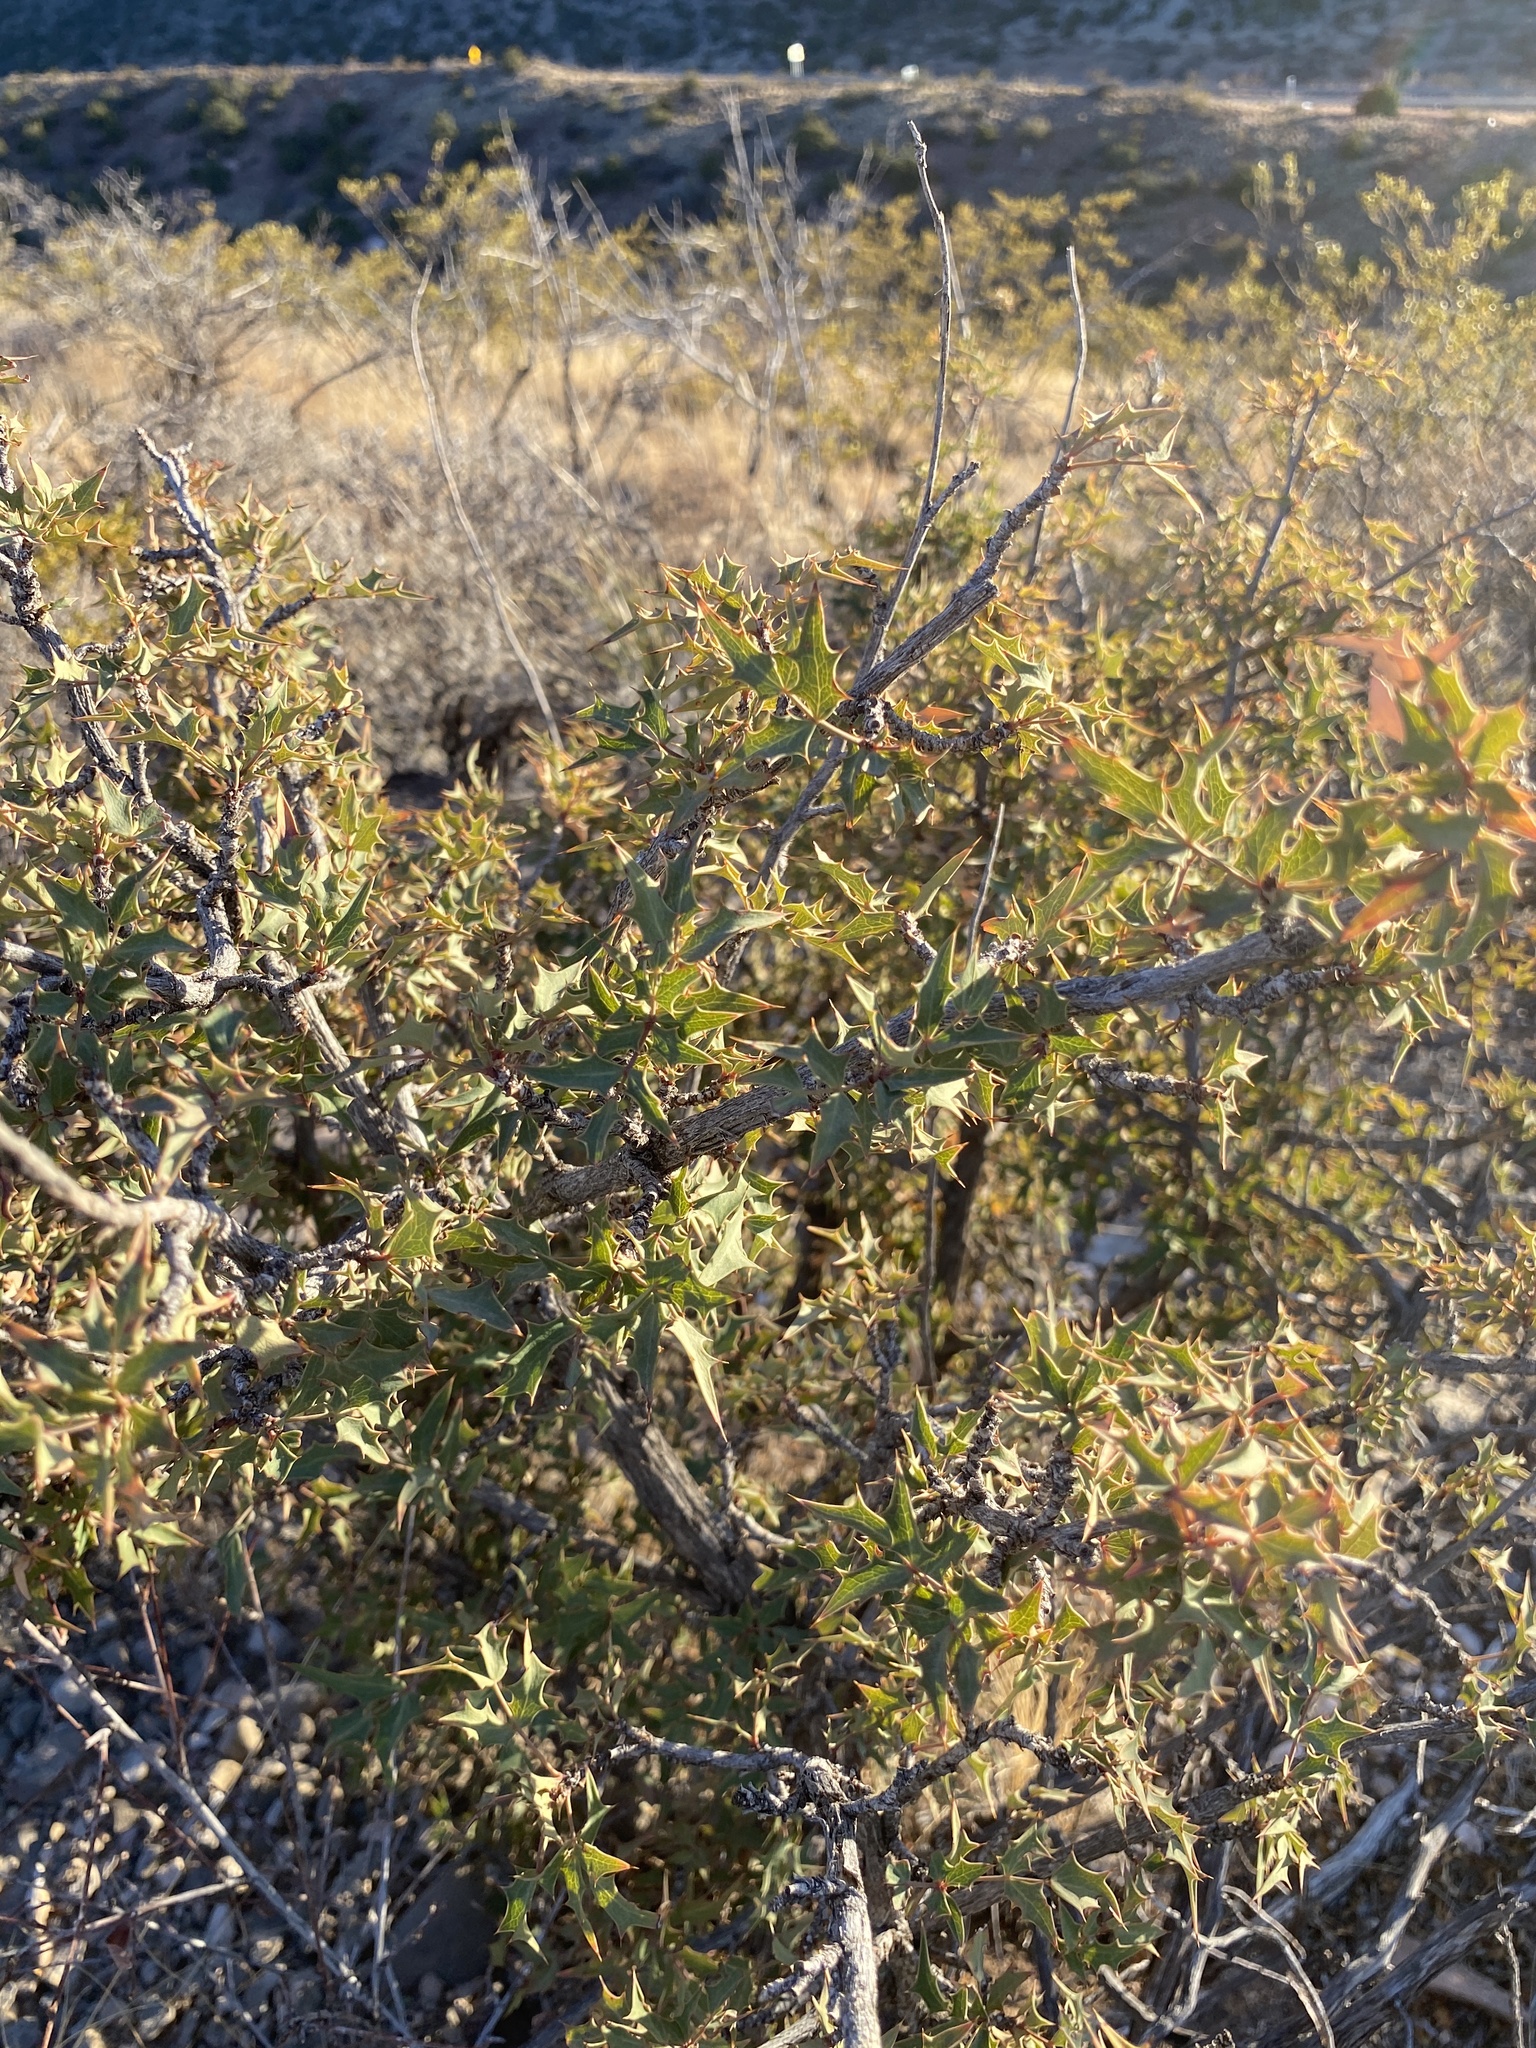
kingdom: Plantae
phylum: Tracheophyta
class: Magnoliopsida
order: Ranunculales
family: Berberidaceae
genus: Alloberberis
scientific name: Alloberberis haematocarpa
